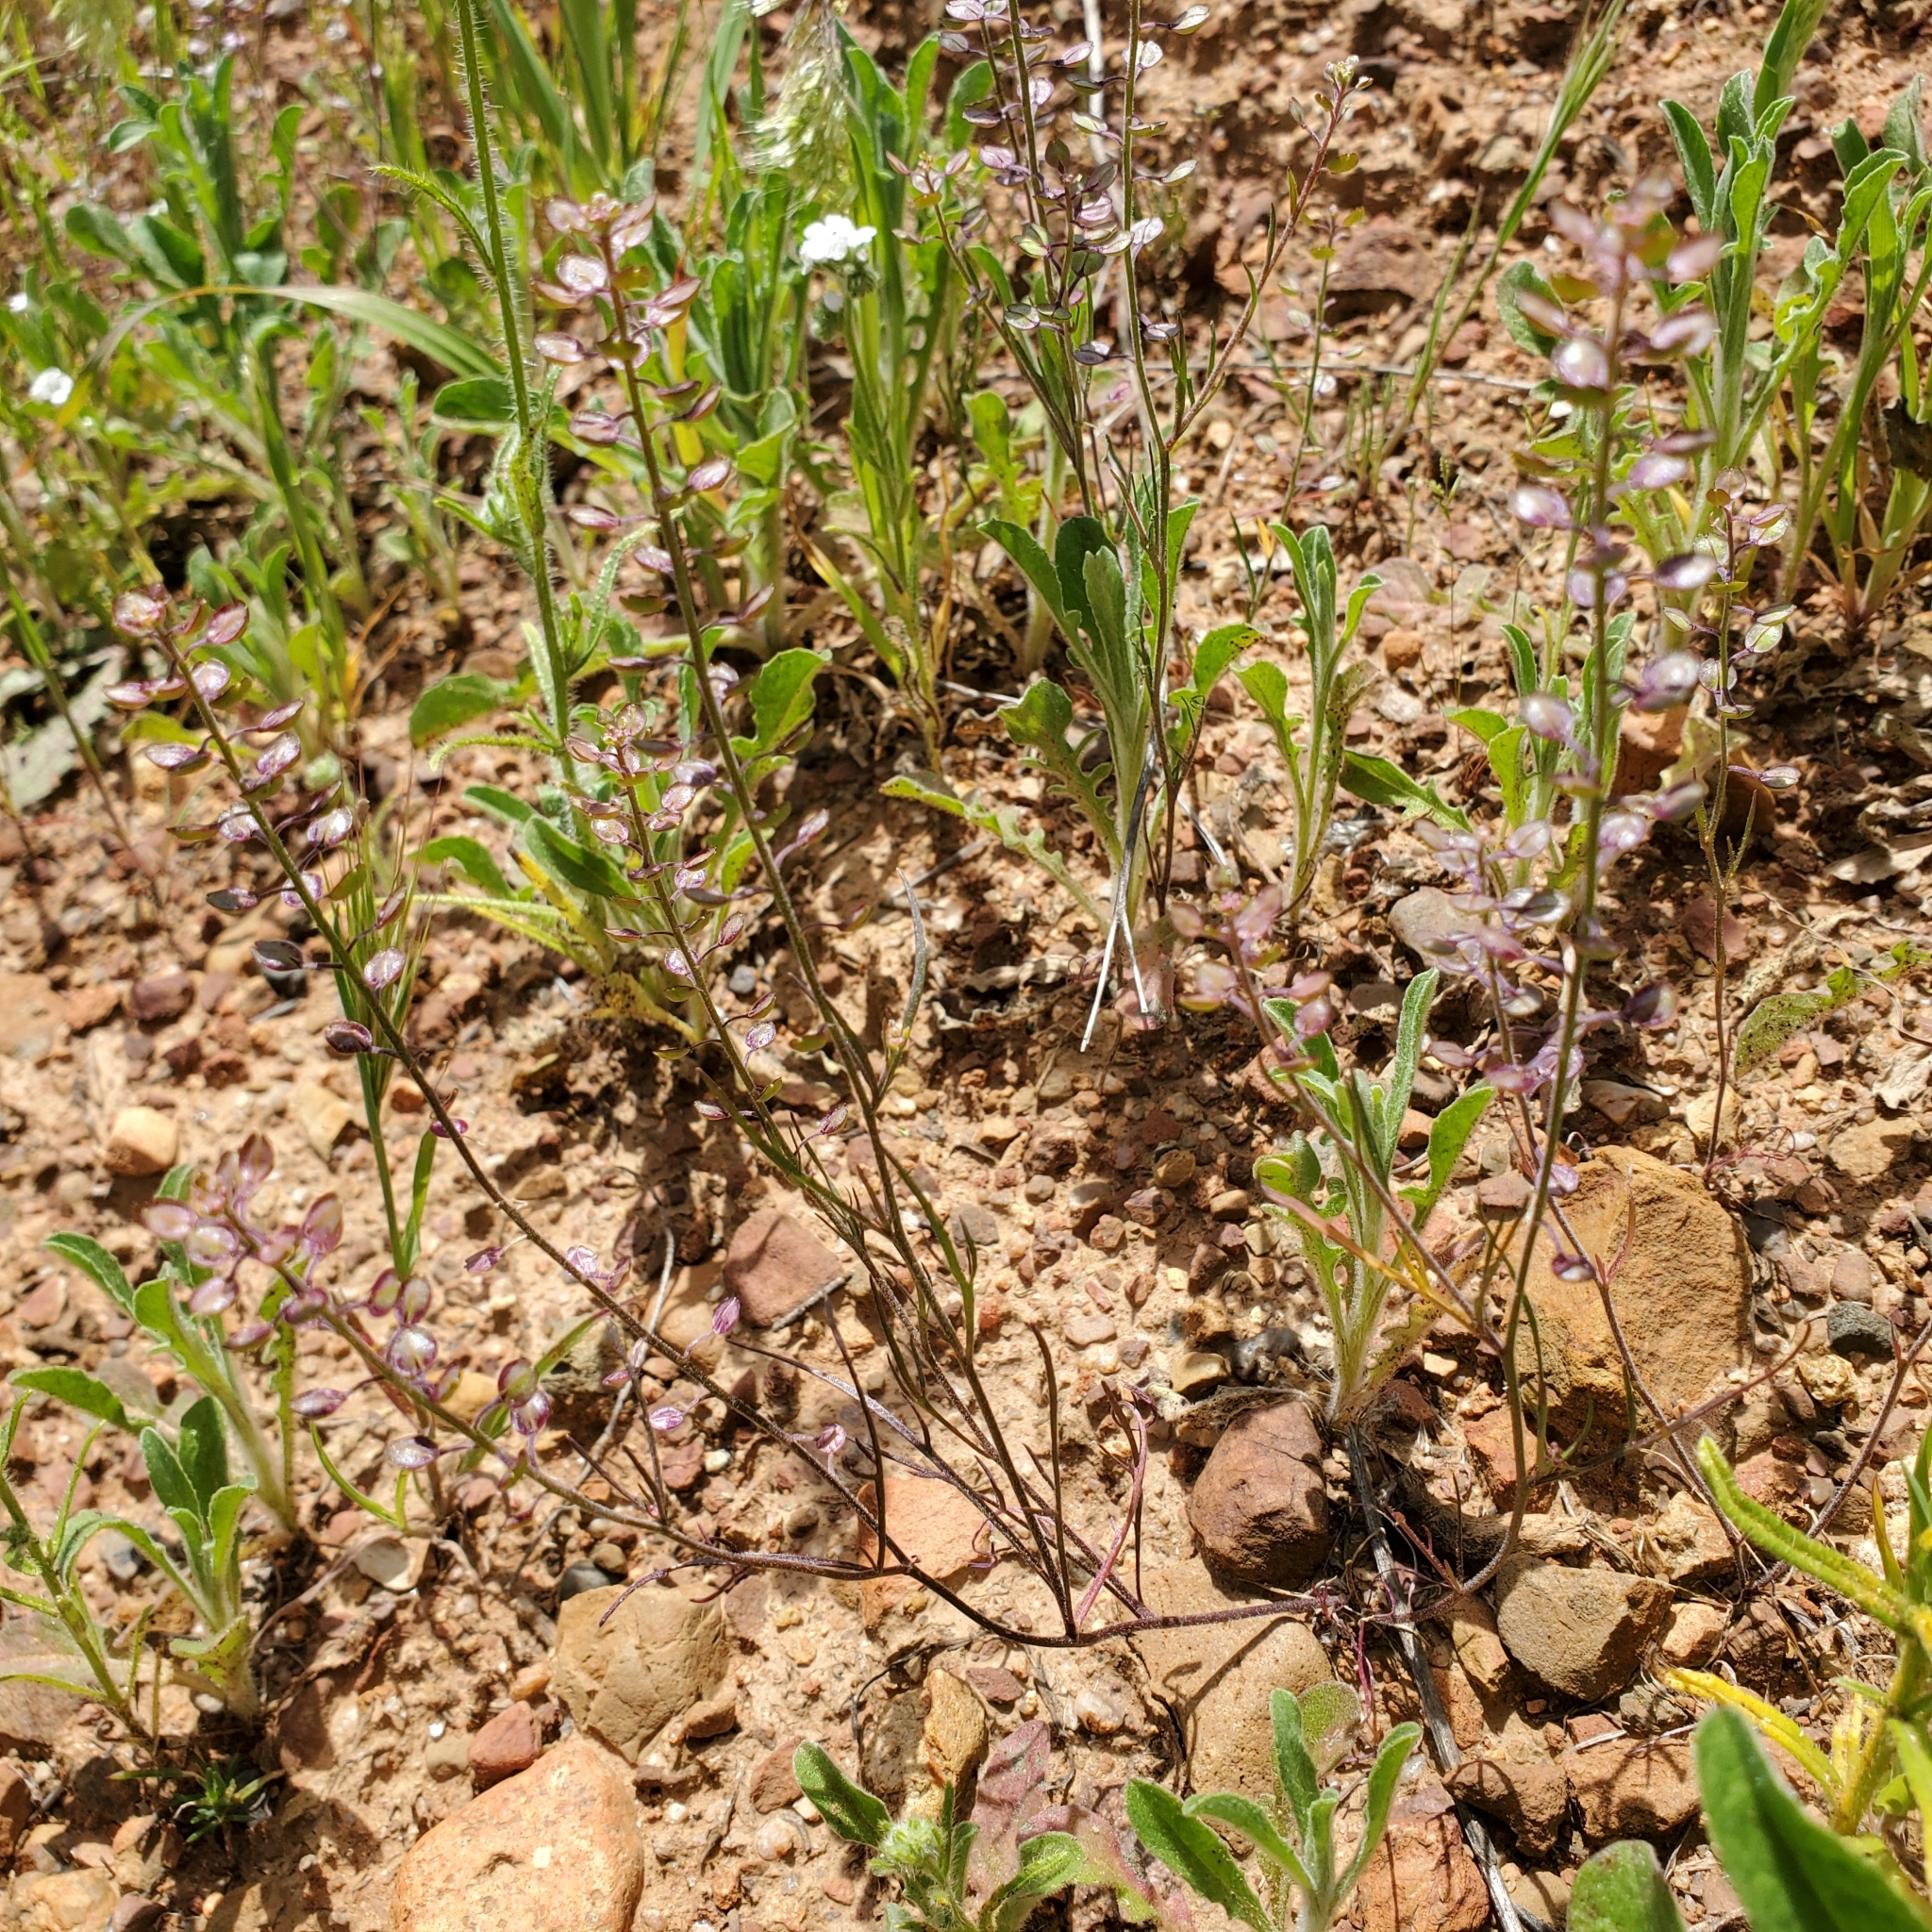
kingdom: Plantae
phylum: Tracheophyta
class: Magnoliopsida
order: Brassicales
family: Brassicaceae
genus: Lepidium
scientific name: Lepidium nitidum
